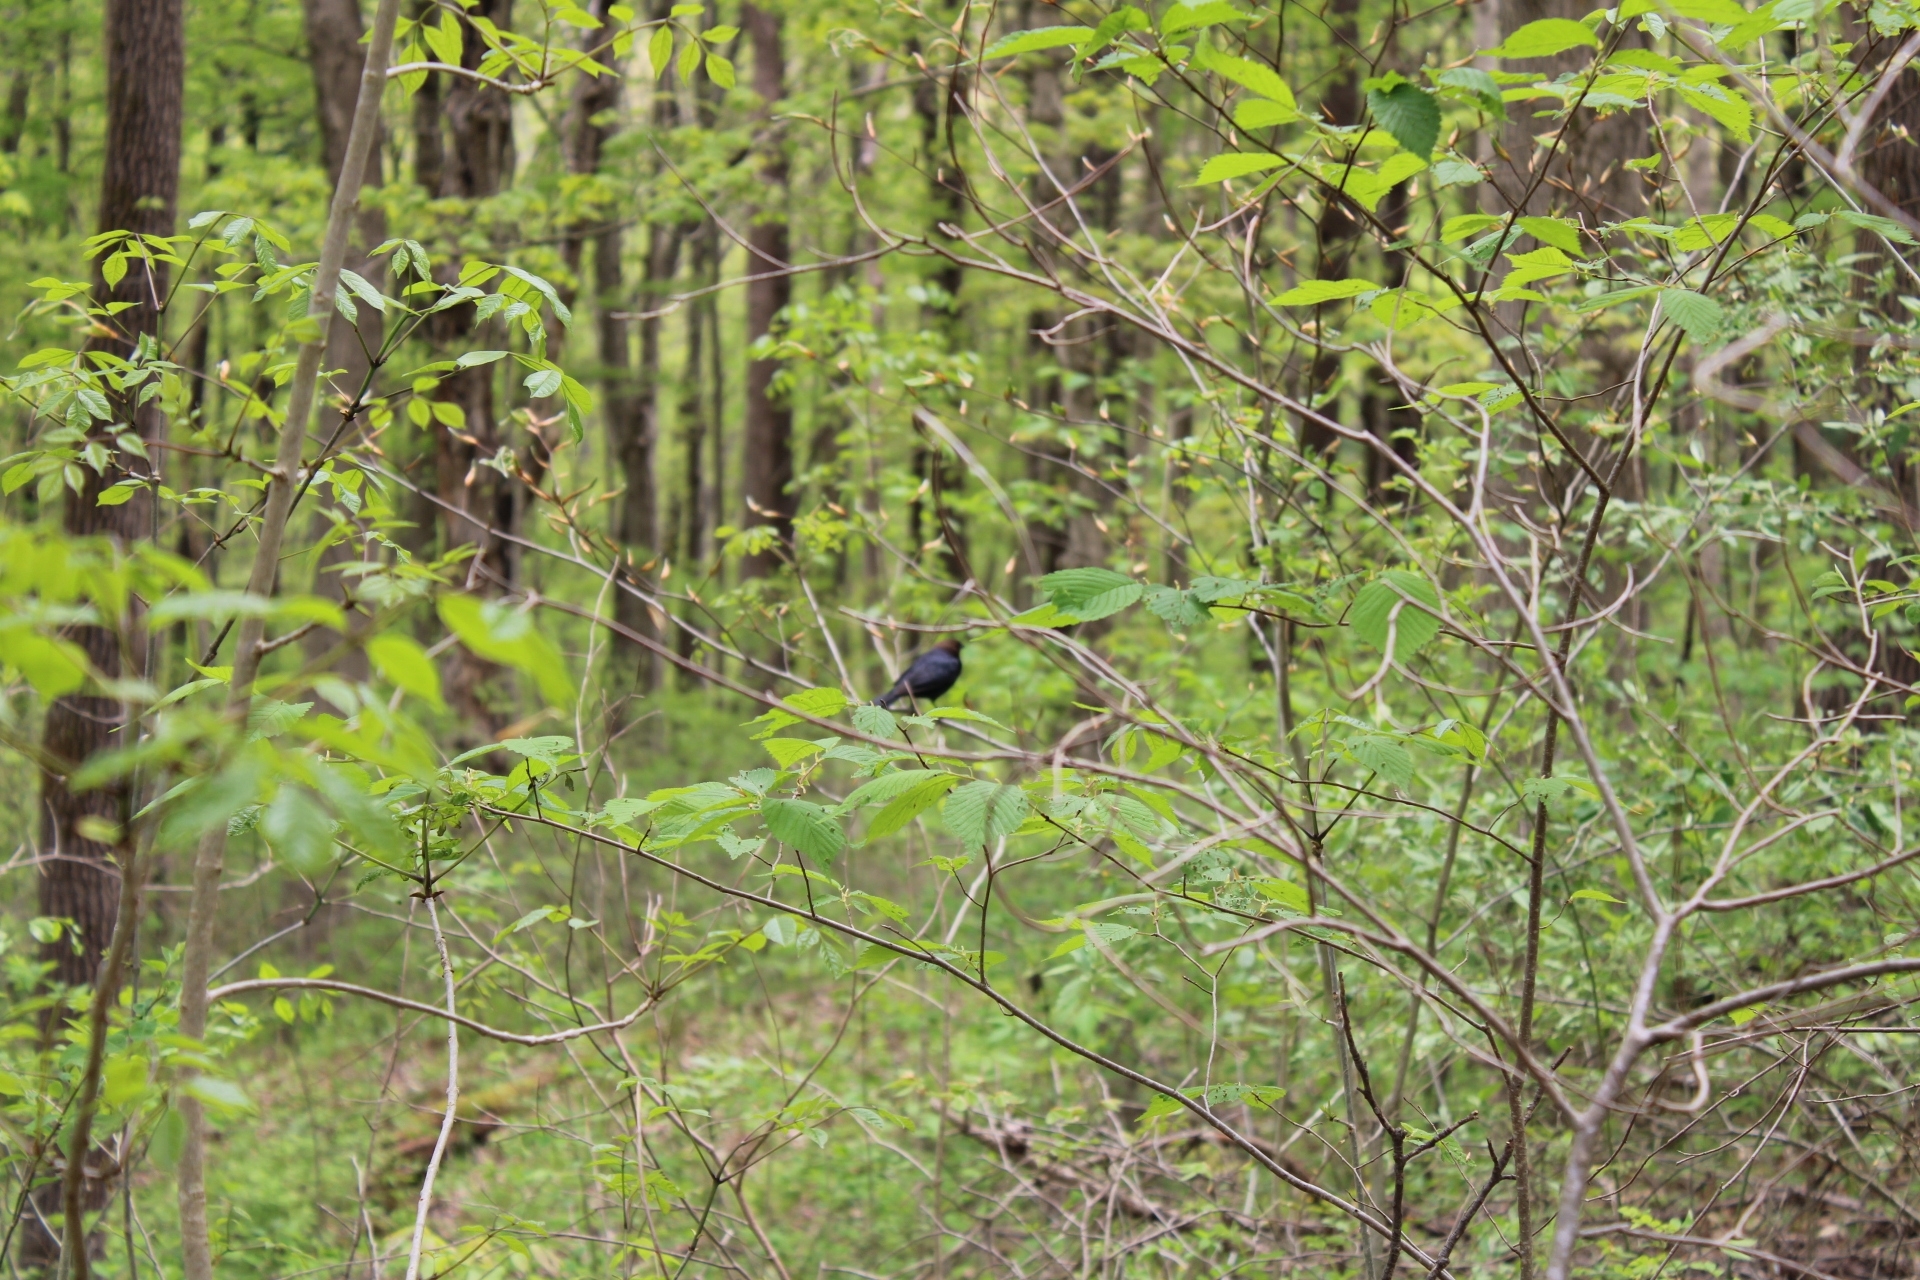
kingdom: Animalia
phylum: Chordata
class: Aves
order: Passeriformes
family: Icteridae
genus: Molothrus
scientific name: Molothrus ater
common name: Brown-headed cowbird
